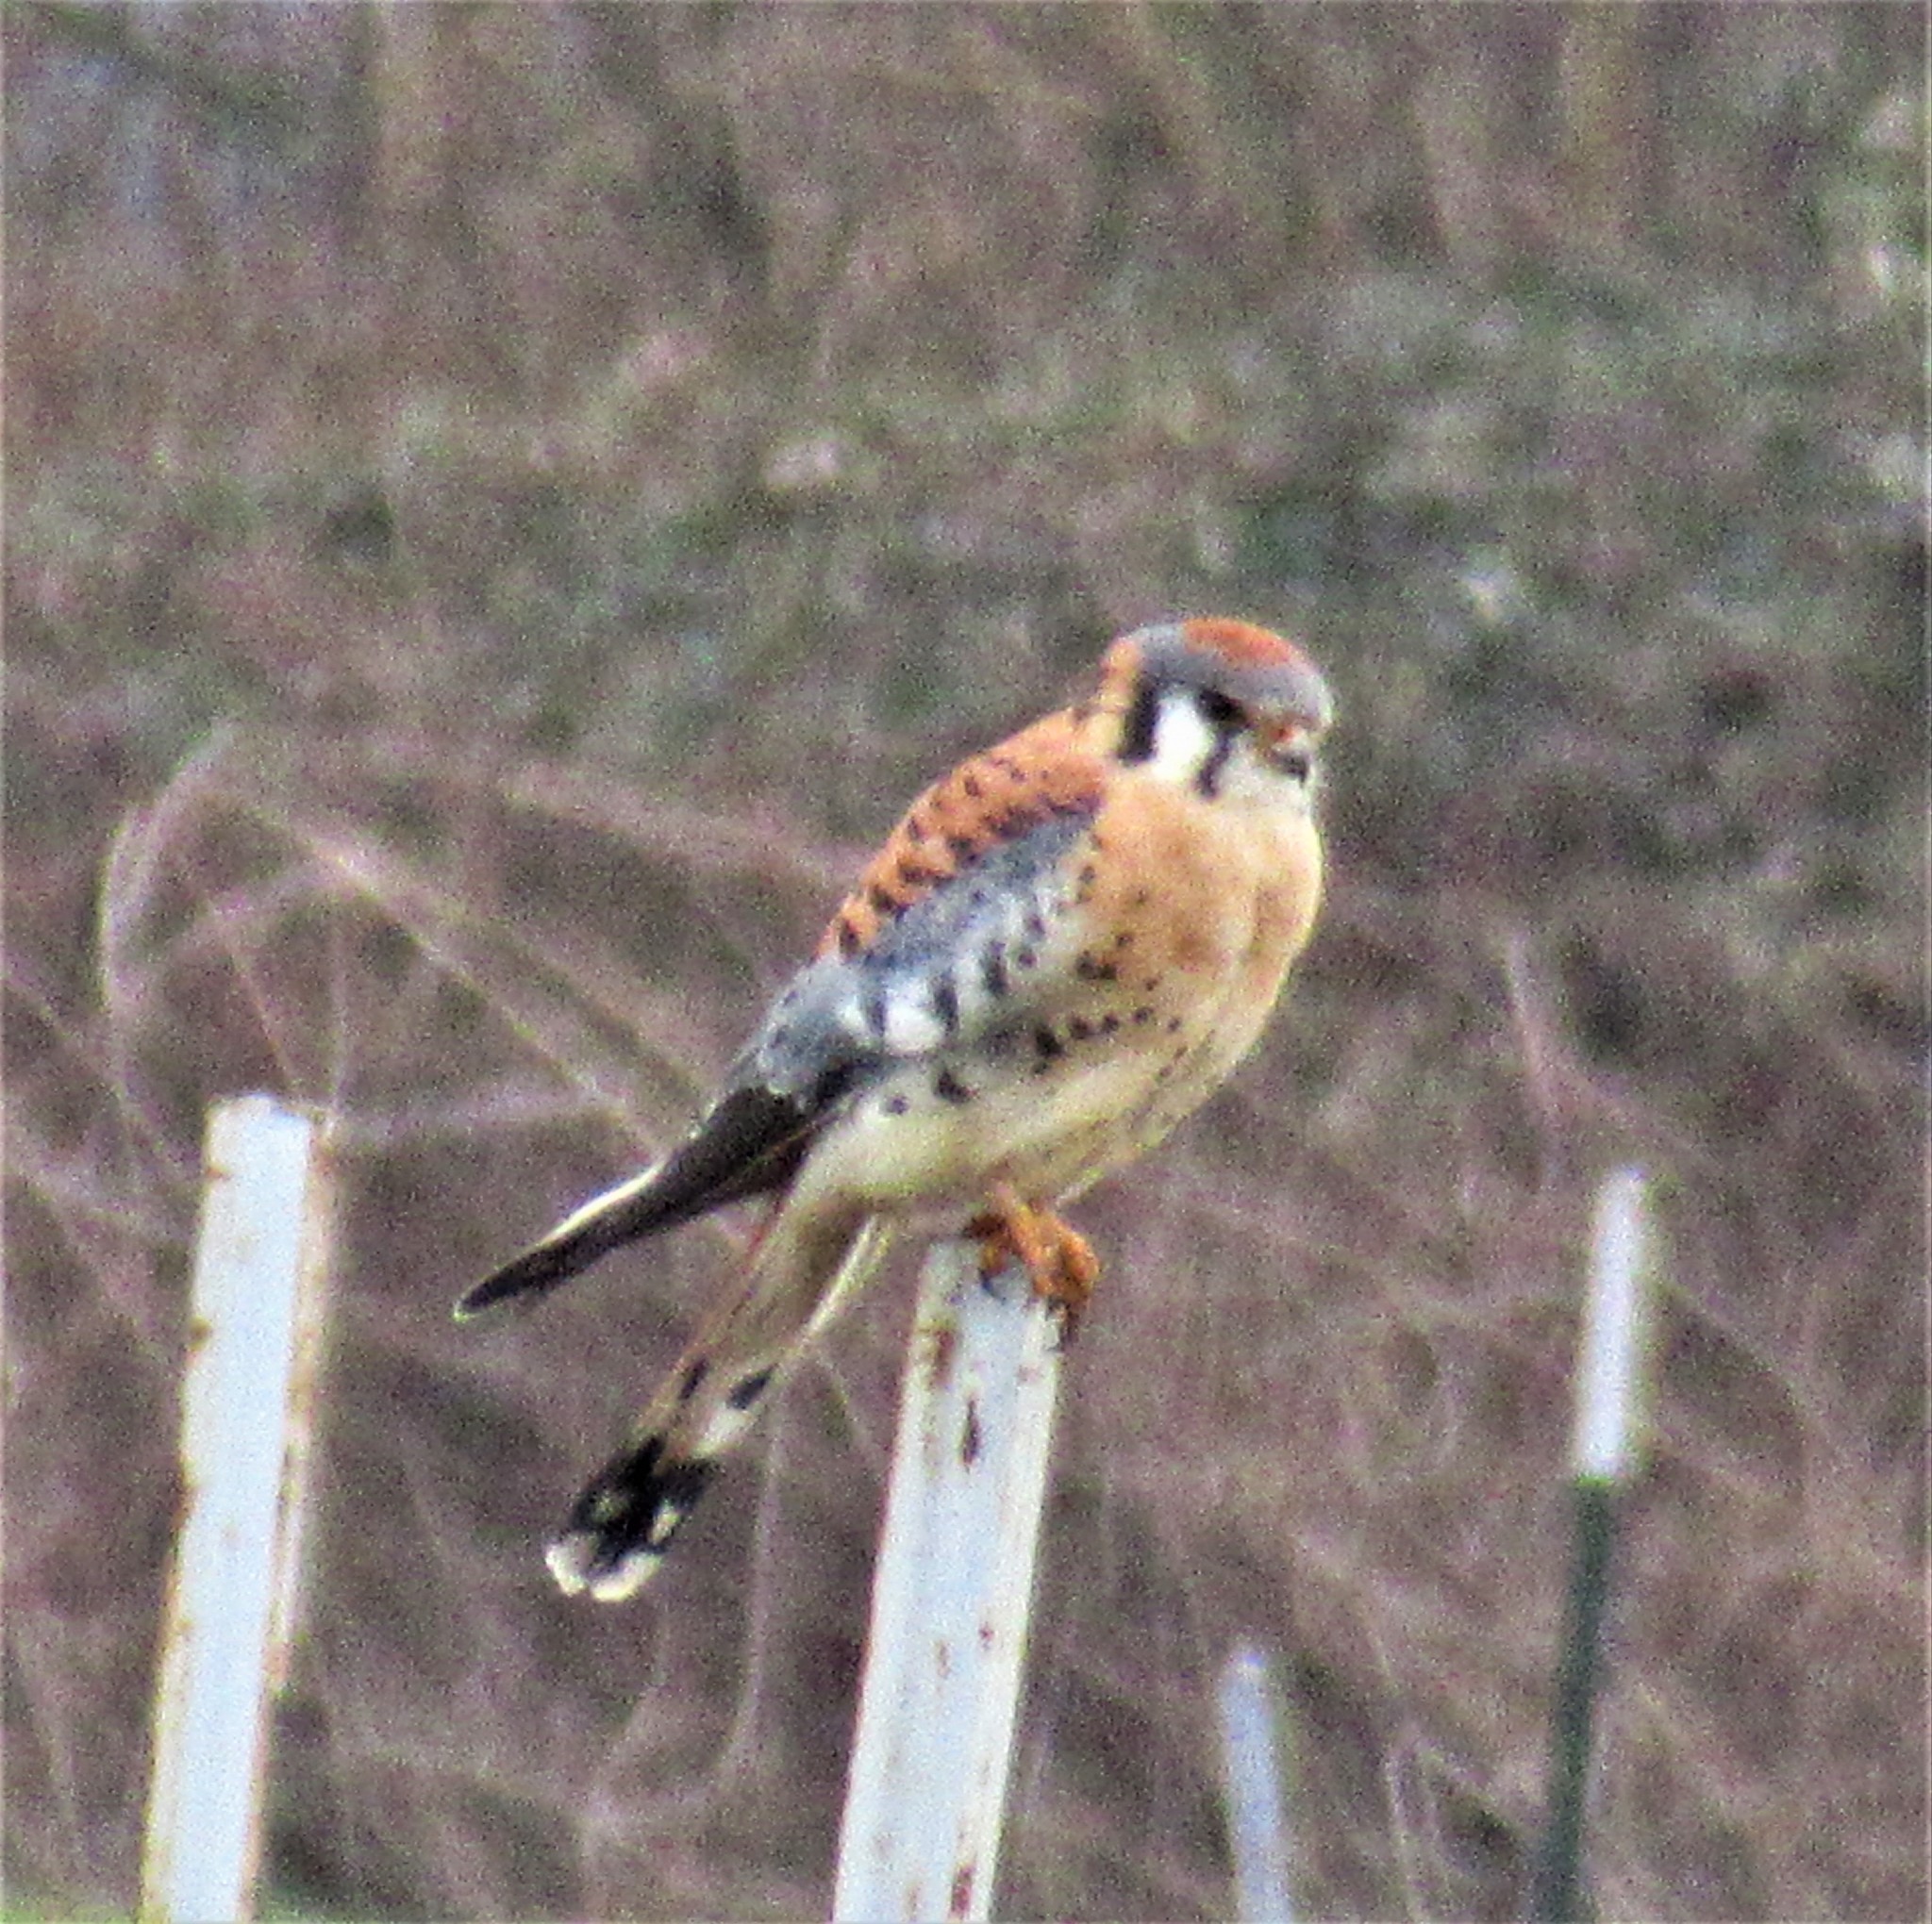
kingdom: Animalia
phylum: Chordata
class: Aves
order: Falconiformes
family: Falconidae
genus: Falco
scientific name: Falco sparverius
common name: American kestrel
